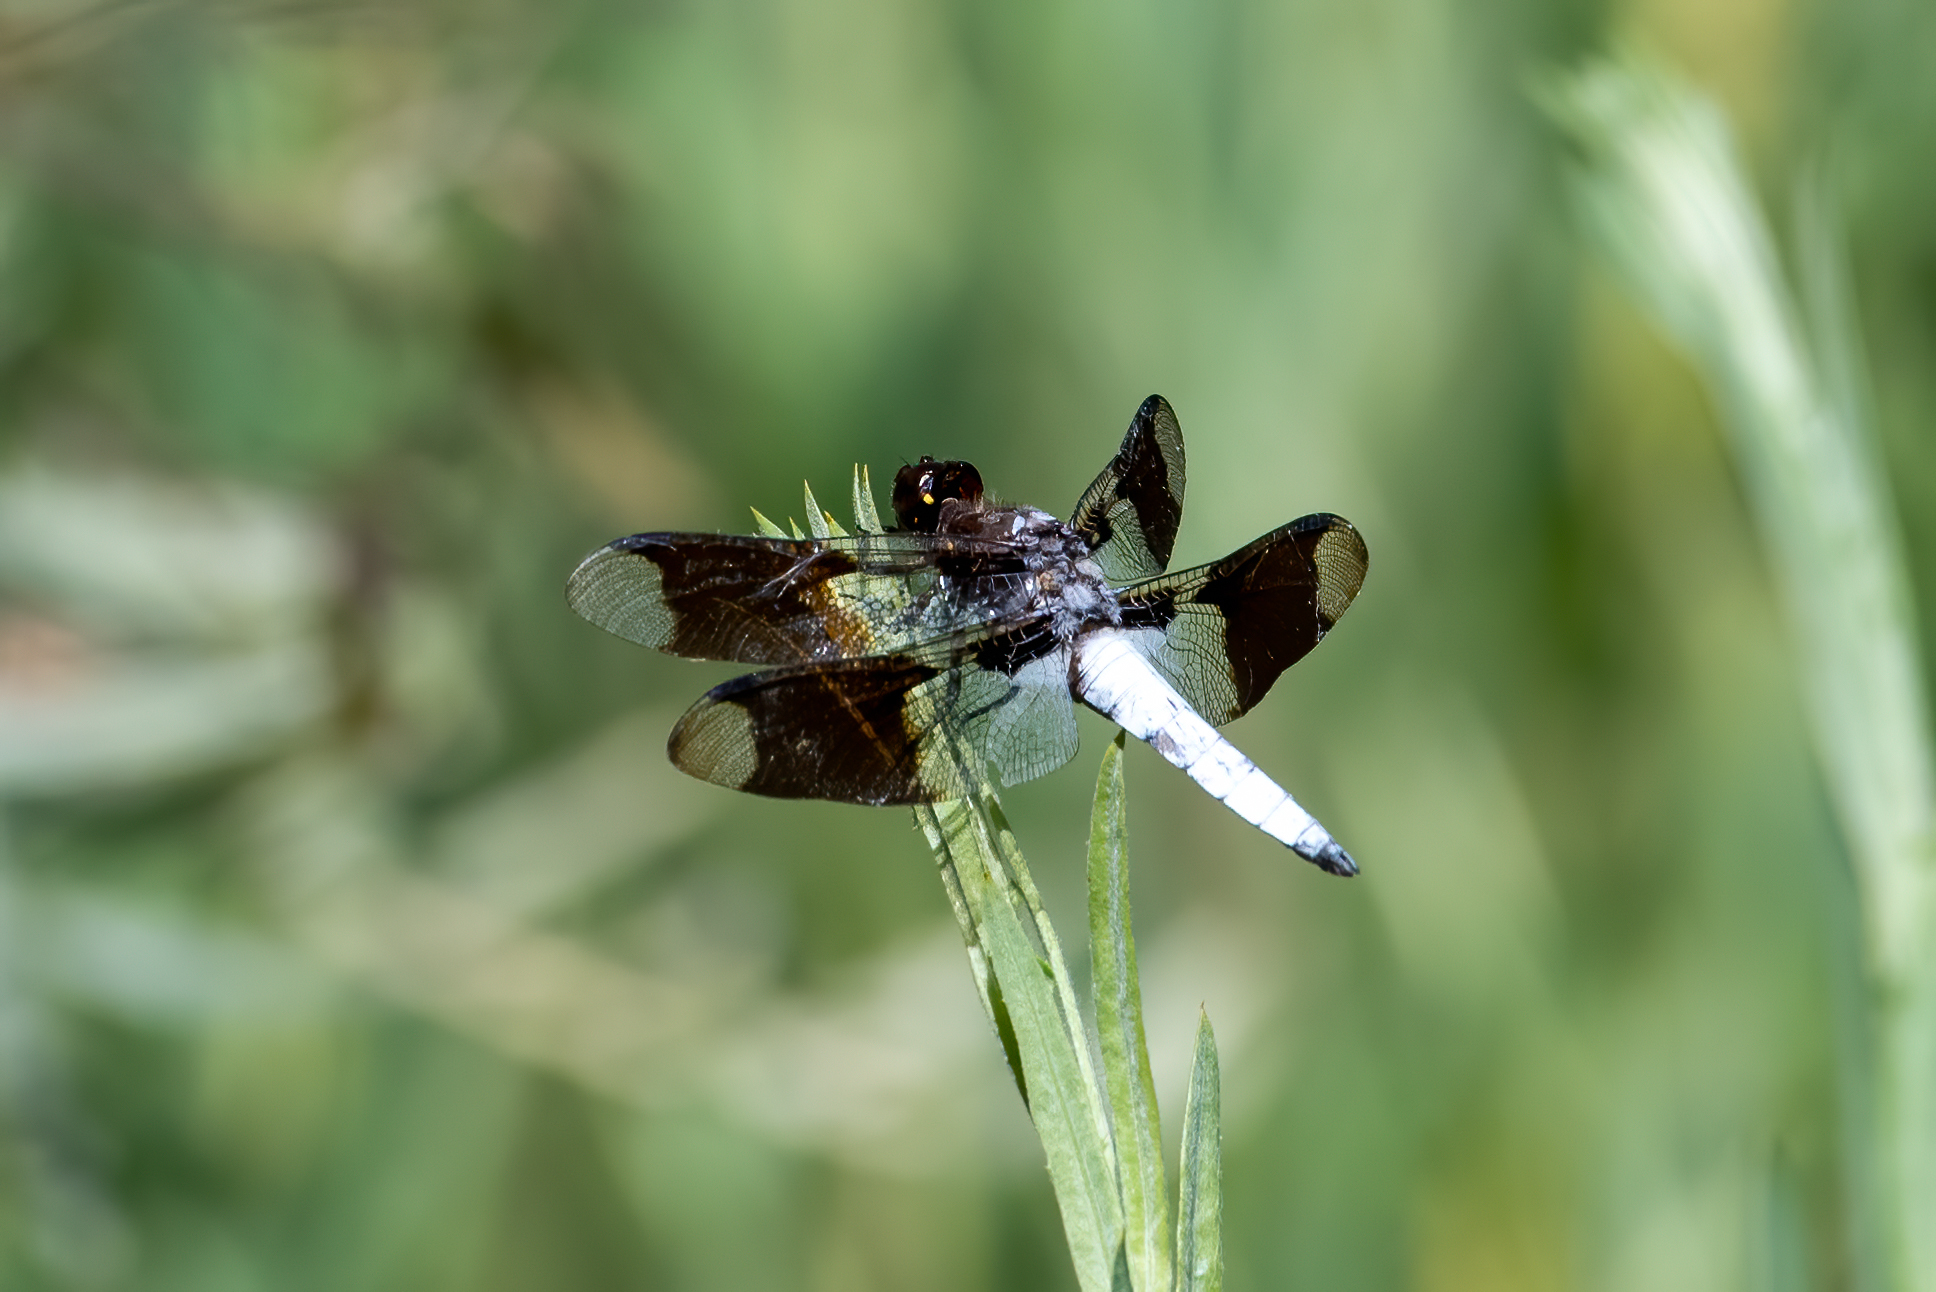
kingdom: Animalia
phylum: Arthropoda
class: Insecta
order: Odonata
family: Libellulidae
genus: Plathemis
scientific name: Plathemis lydia
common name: Common whitetail
